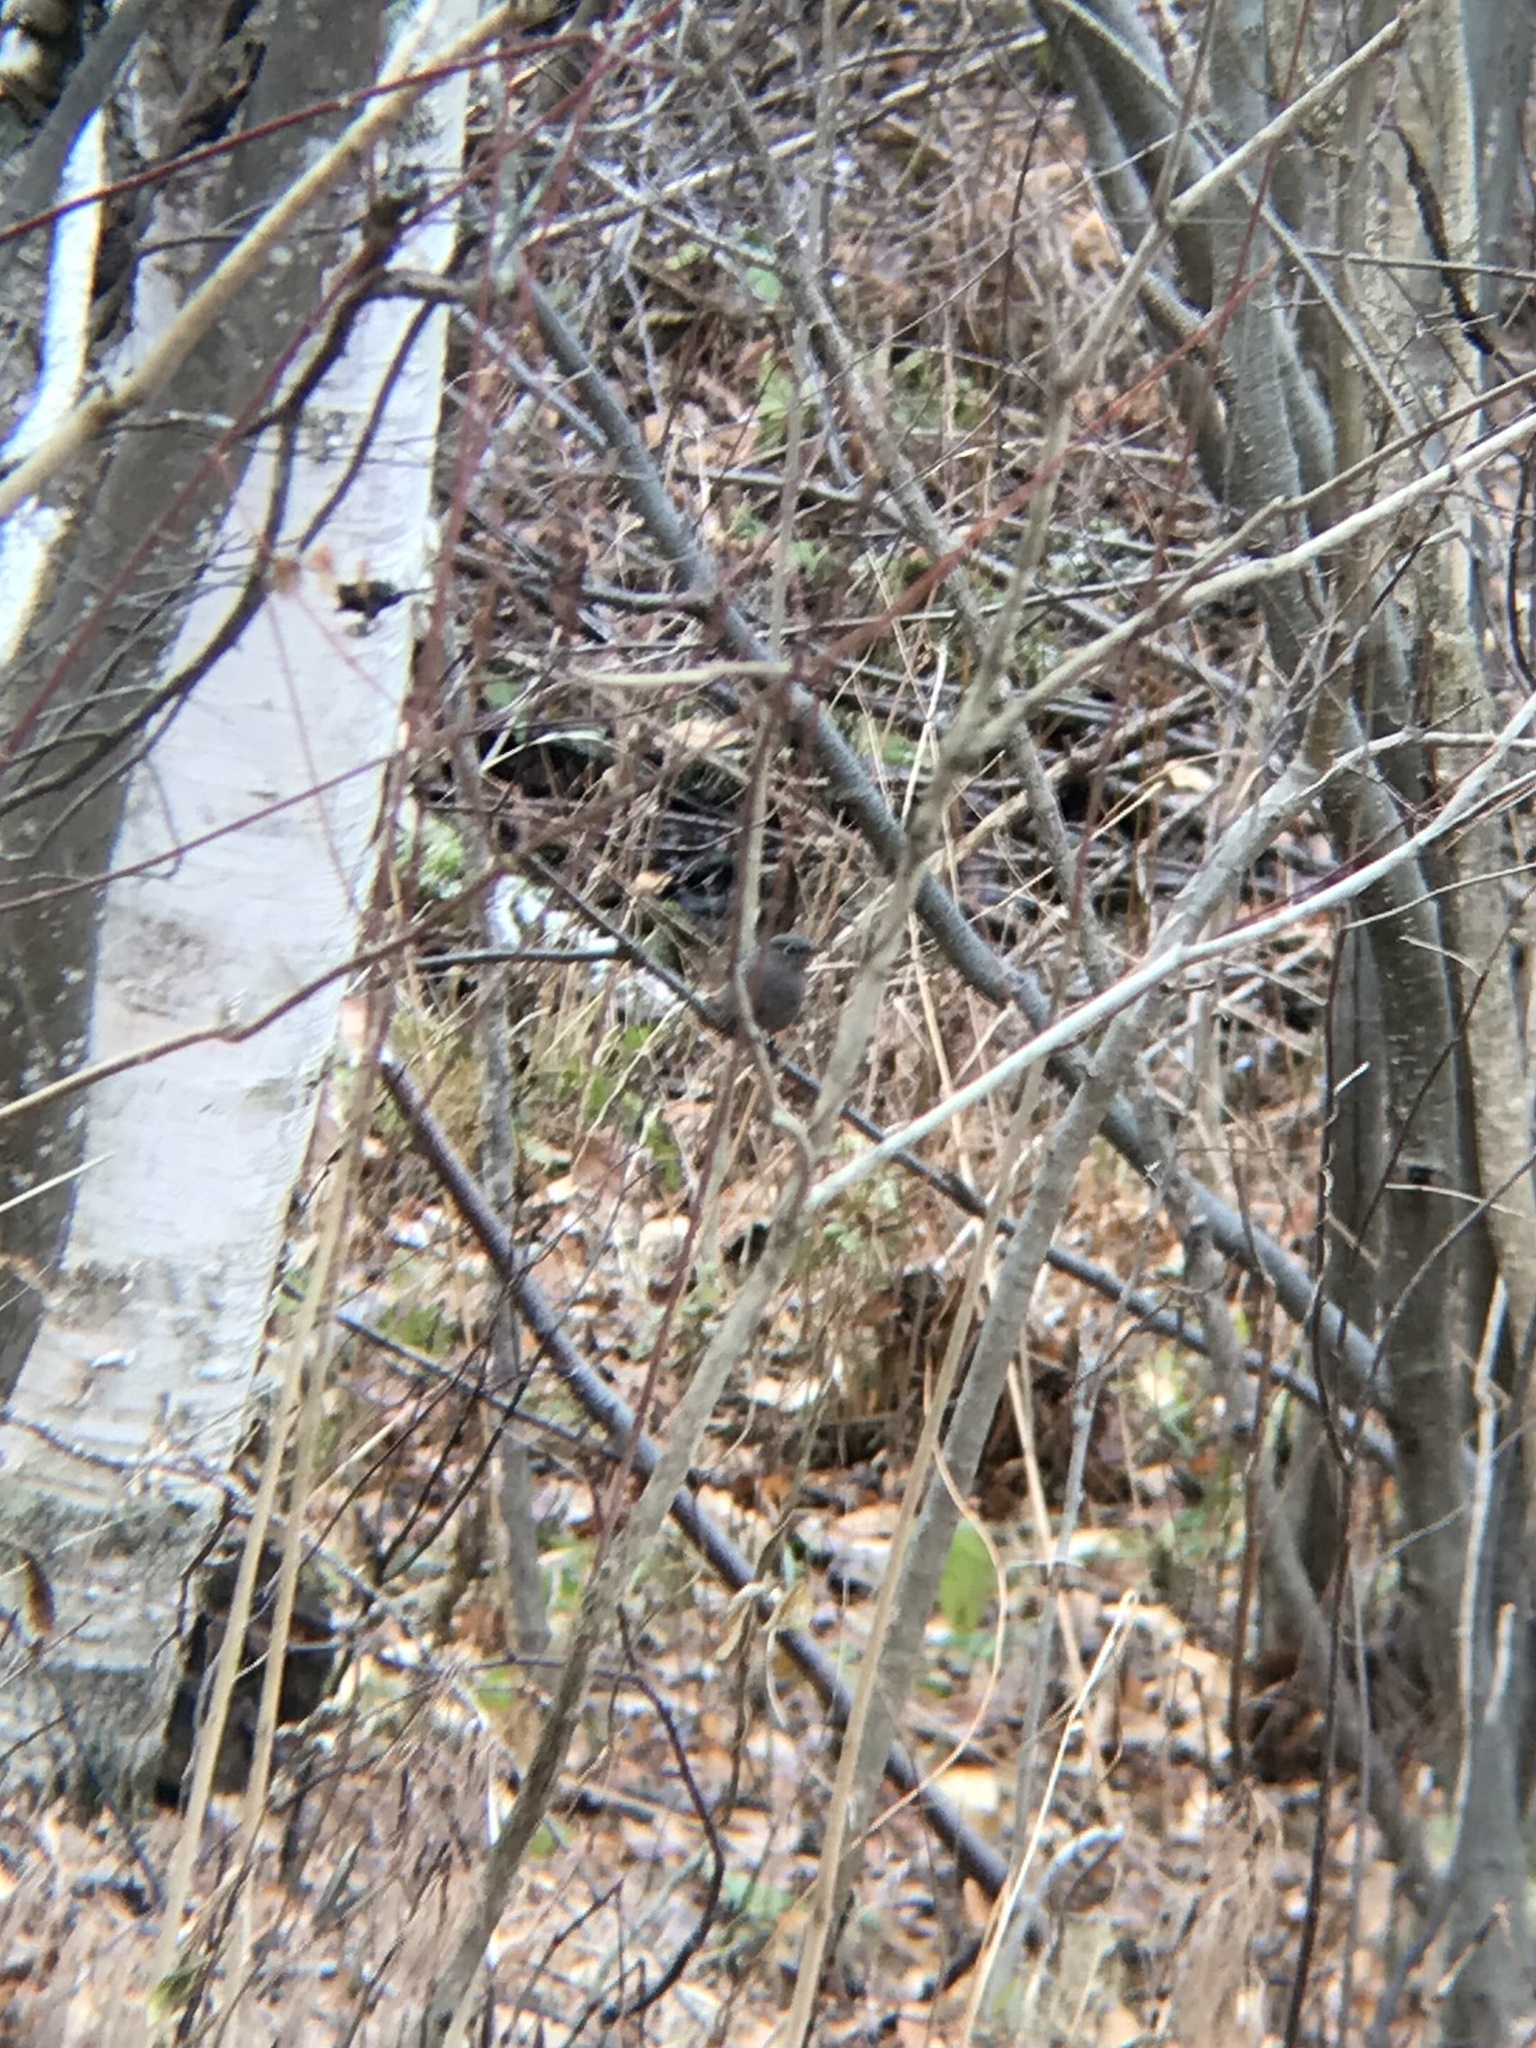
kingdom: Animalia
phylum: Chordata
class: Aves
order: Passeriformes
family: Turdidae
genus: Myadestes
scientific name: Myadestes townsendi
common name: Townsend's solitaire
